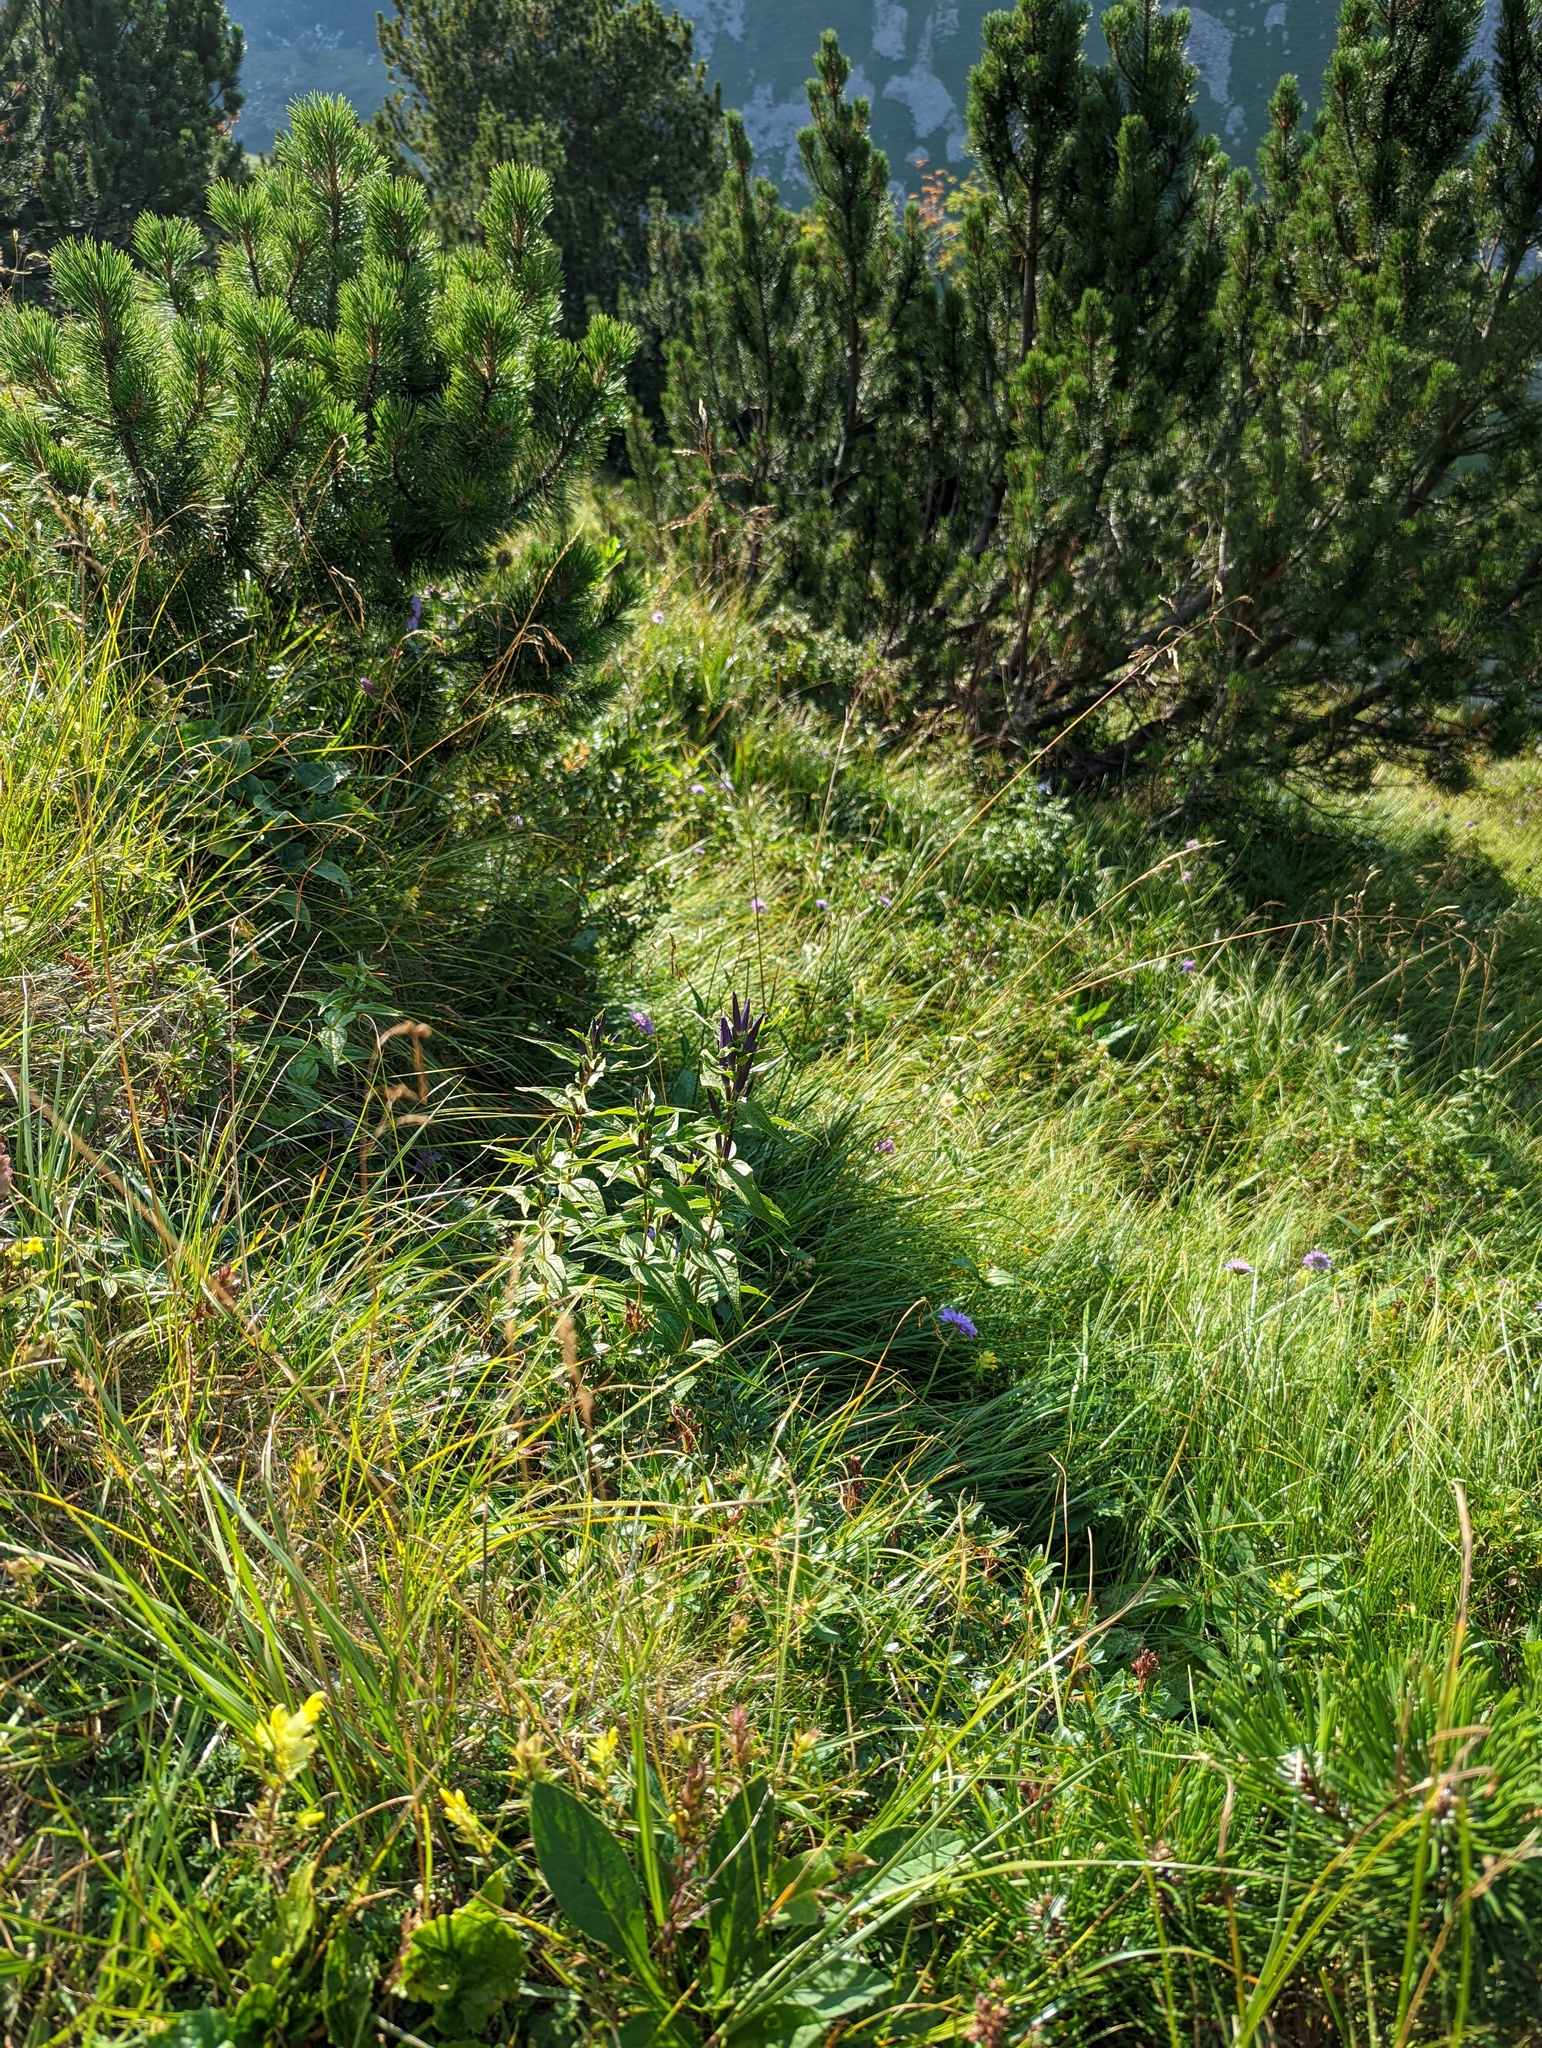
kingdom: Plantae
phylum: Tracheophyta
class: Magnoliopsida
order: Gentianales
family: Gentianaceae
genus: Gentiana
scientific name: Gentiana asclepiadea
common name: Willow gentian
